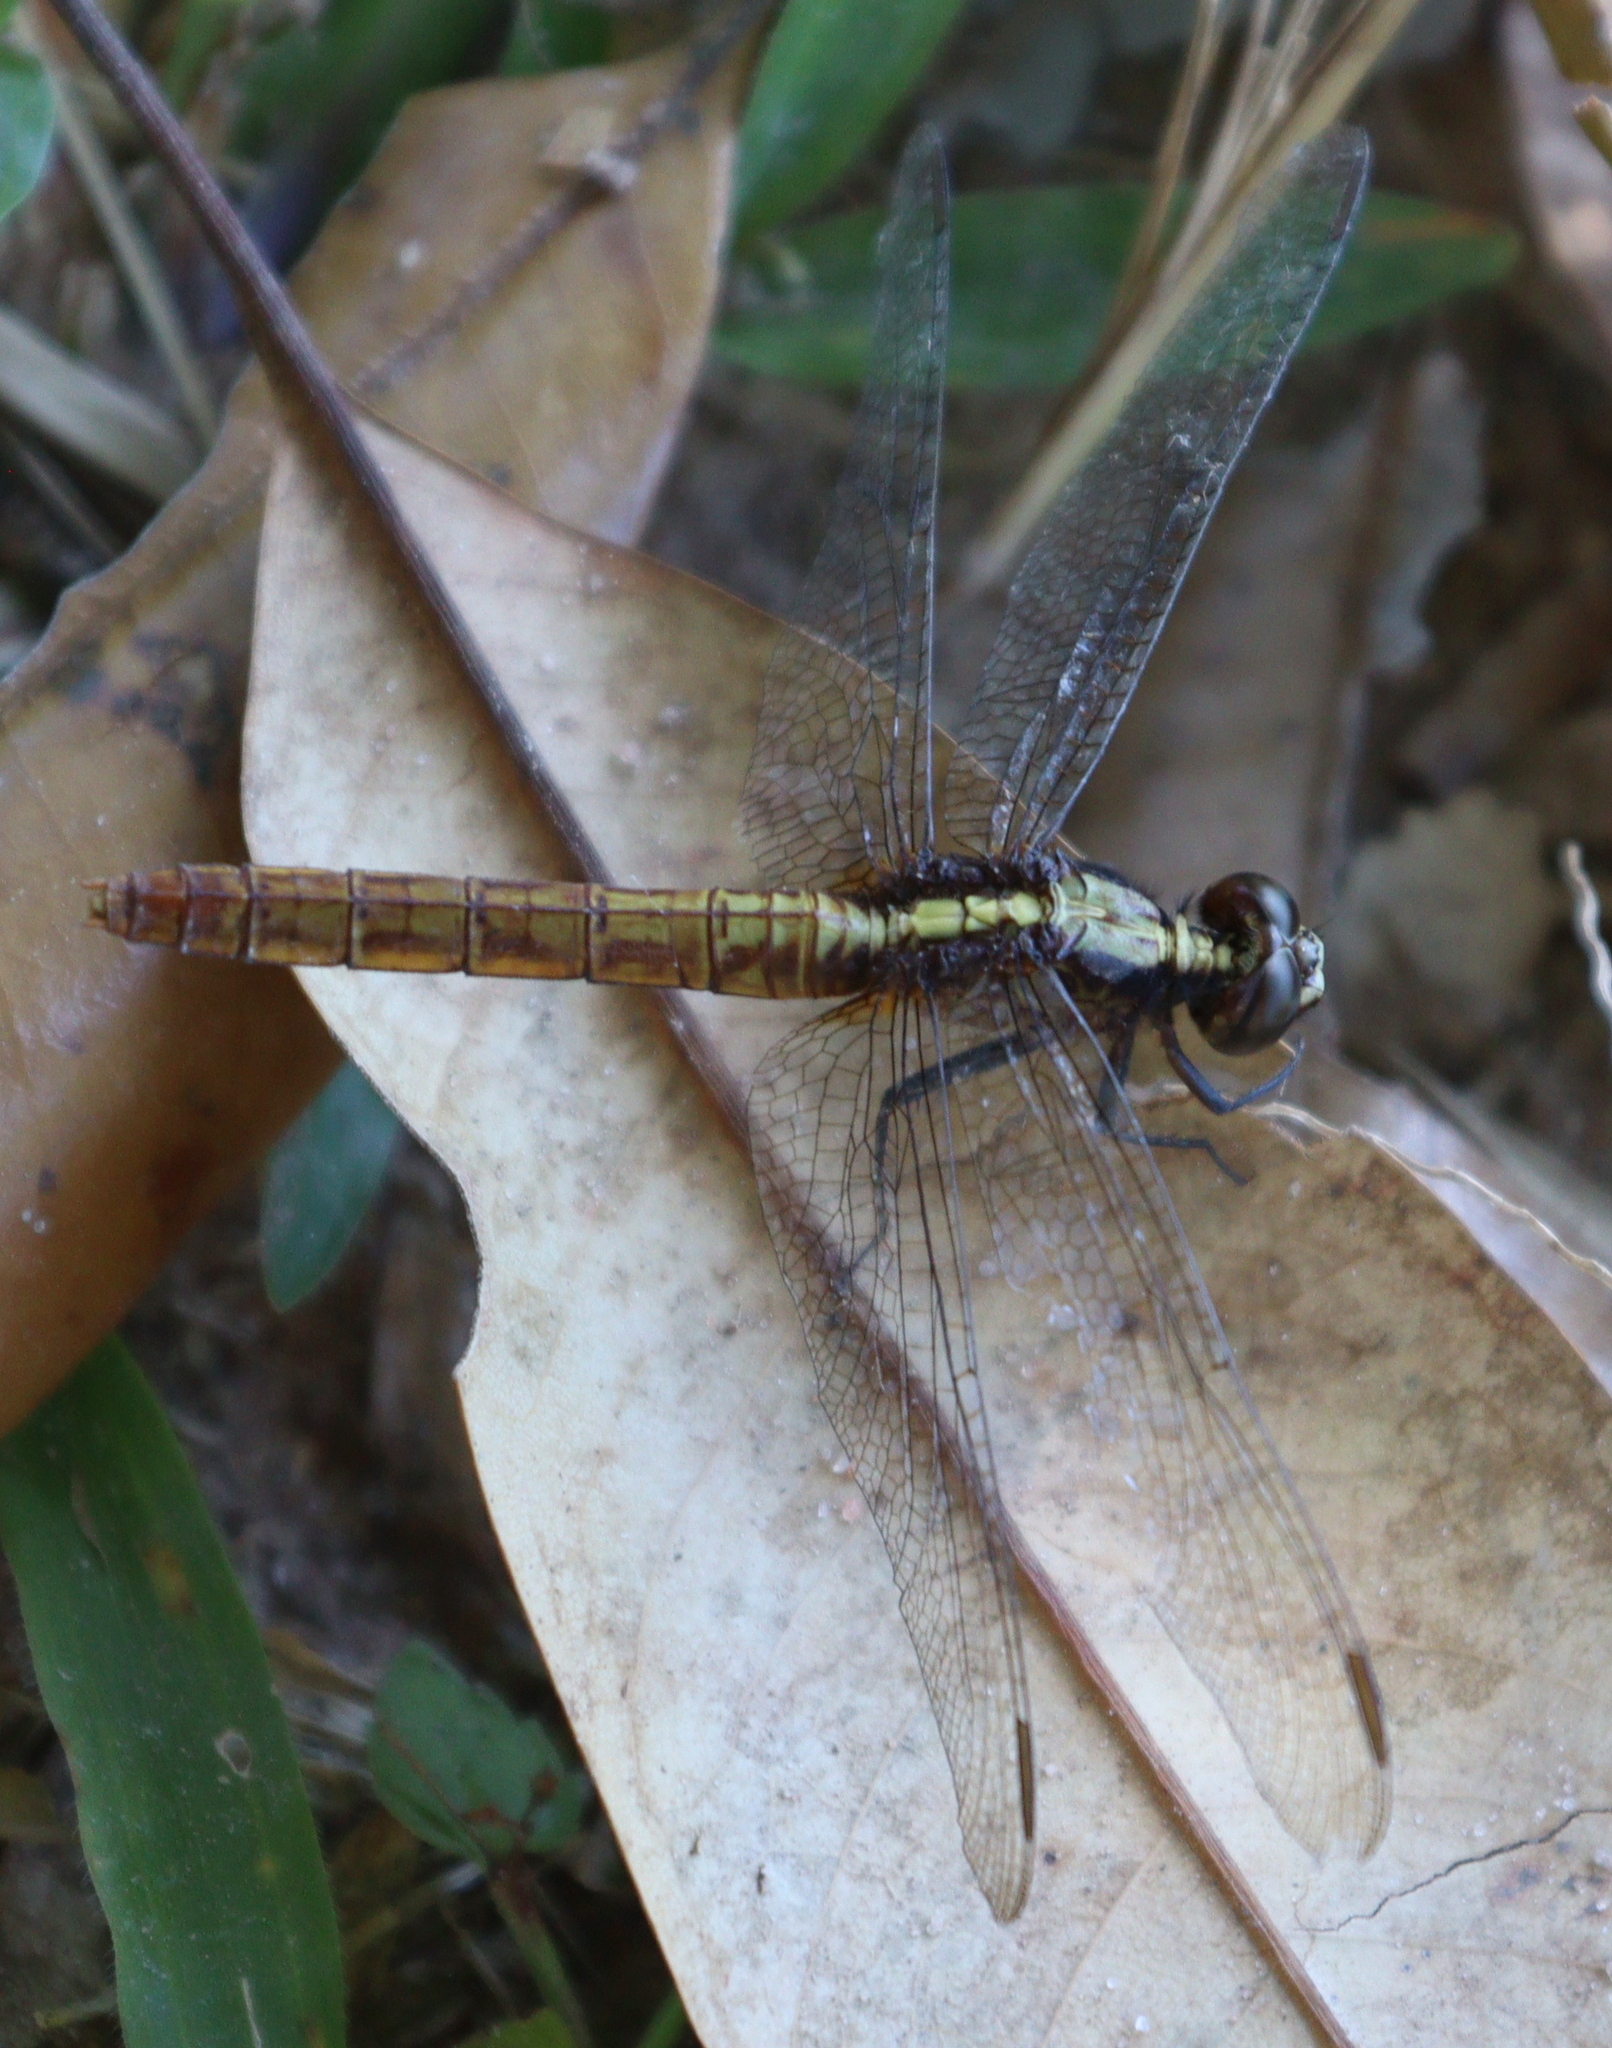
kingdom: Animalia
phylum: Arthropoda
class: Insecta
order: Odonata
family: Libellulidae
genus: Erythemis
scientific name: Erythemis peruviana
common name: Flame-tailed pondhawk
